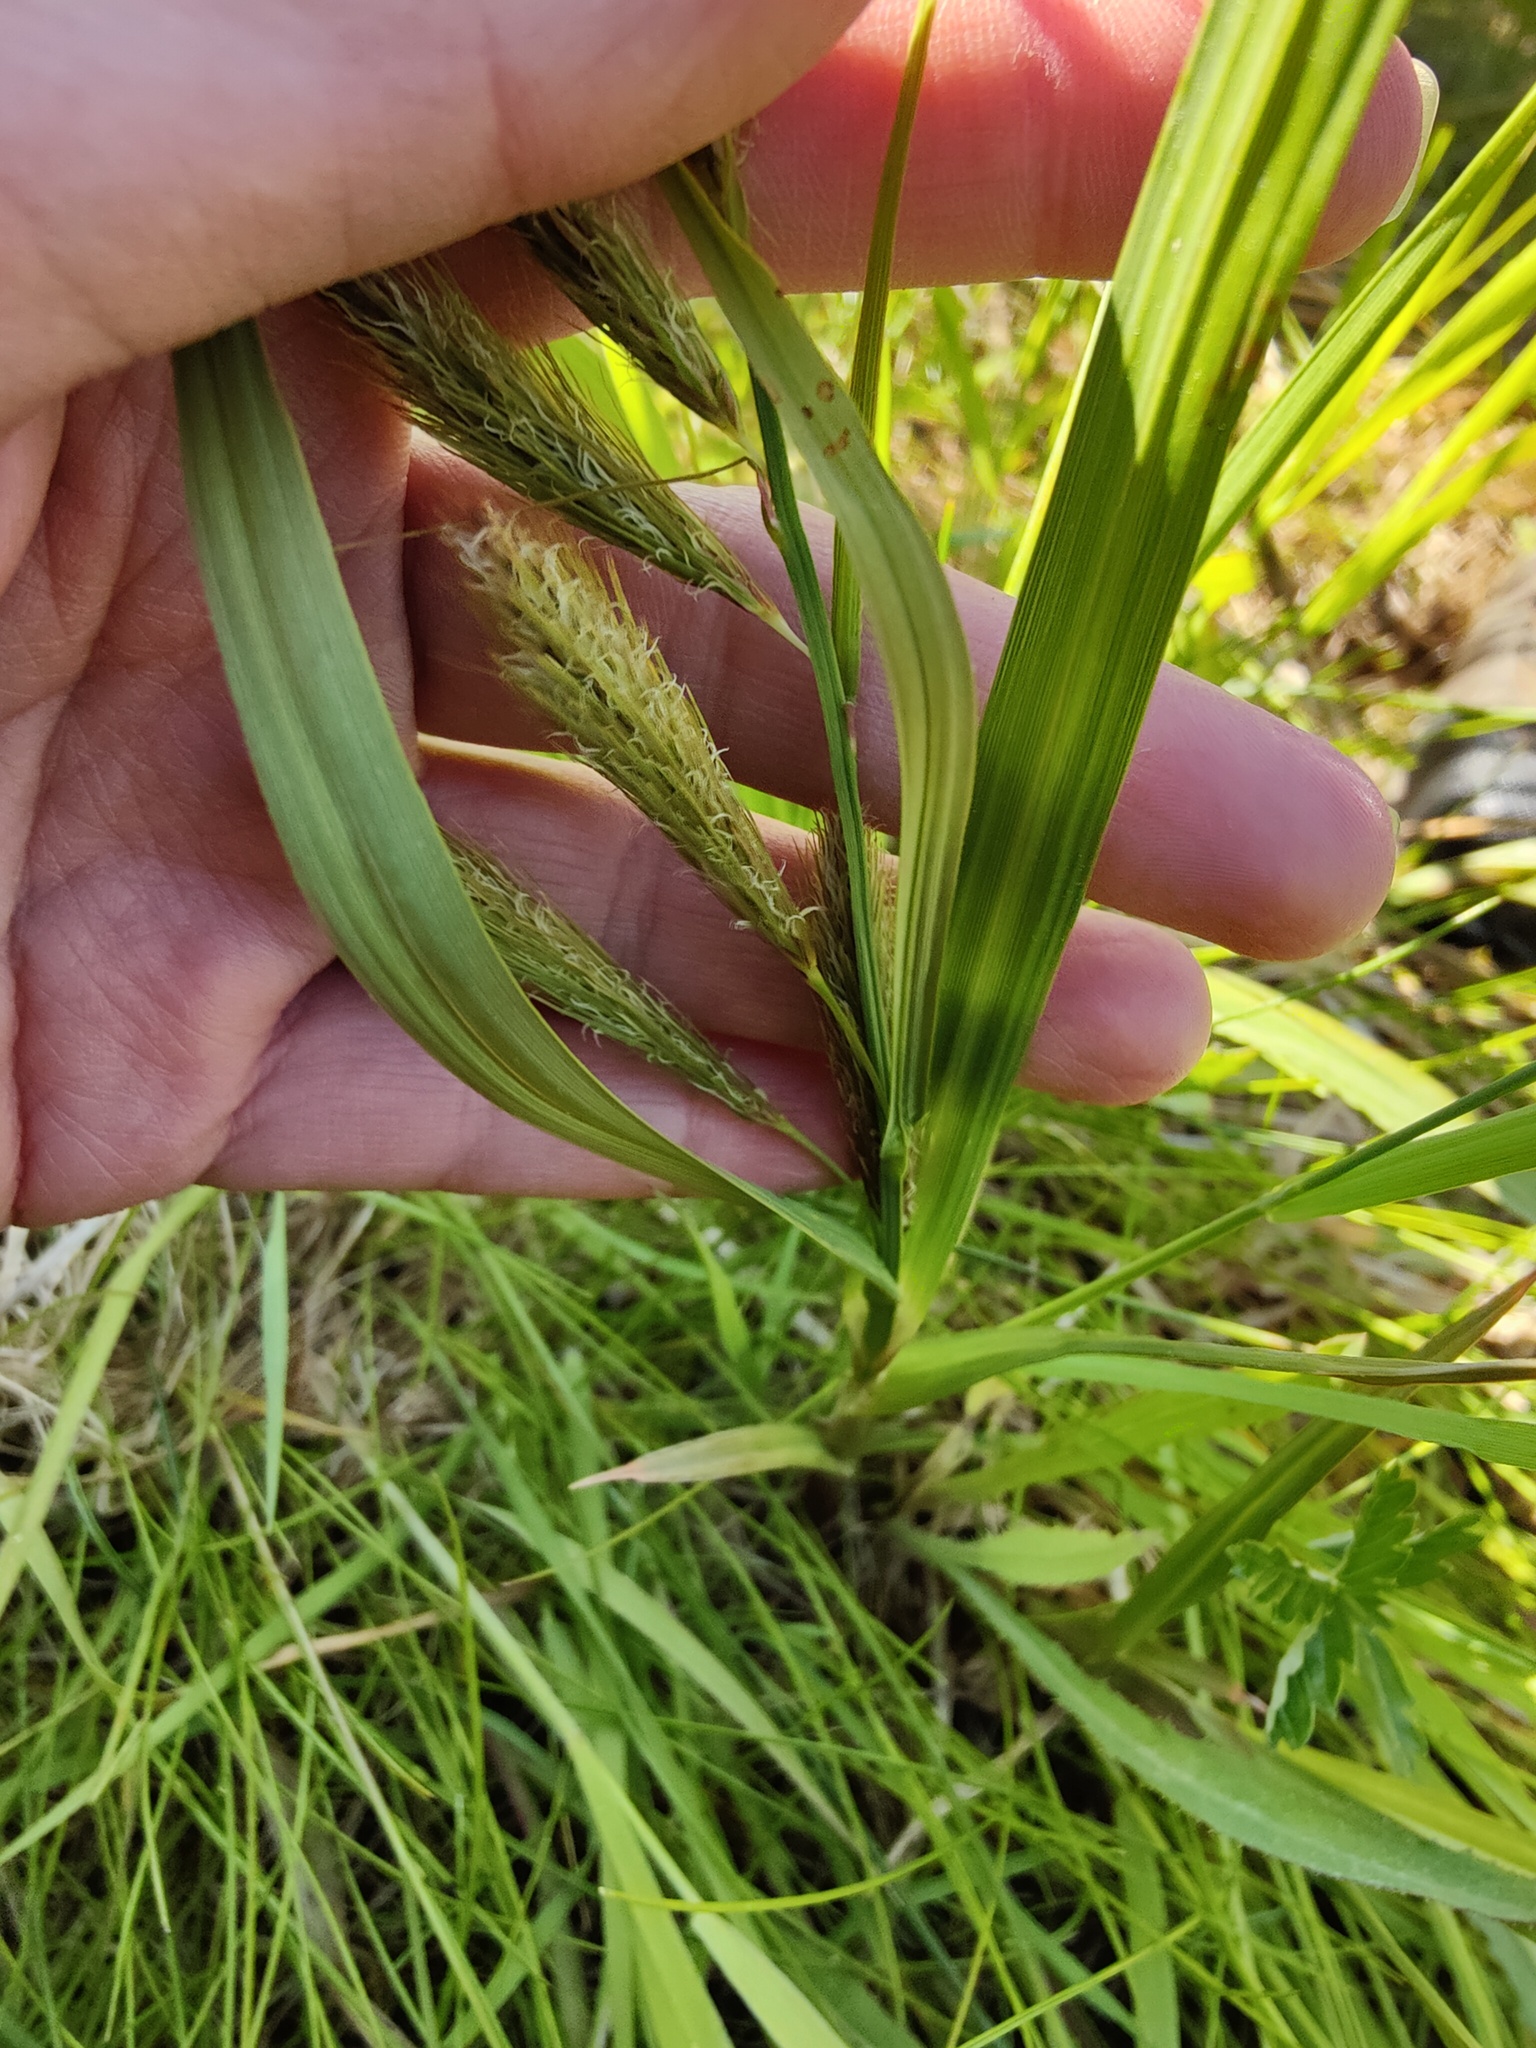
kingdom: Plantae
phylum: Tracheophyta
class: Liliopsida
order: Poales
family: Cyperaceae
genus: Carex
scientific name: Carex paleacea
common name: Chaffy sedge
